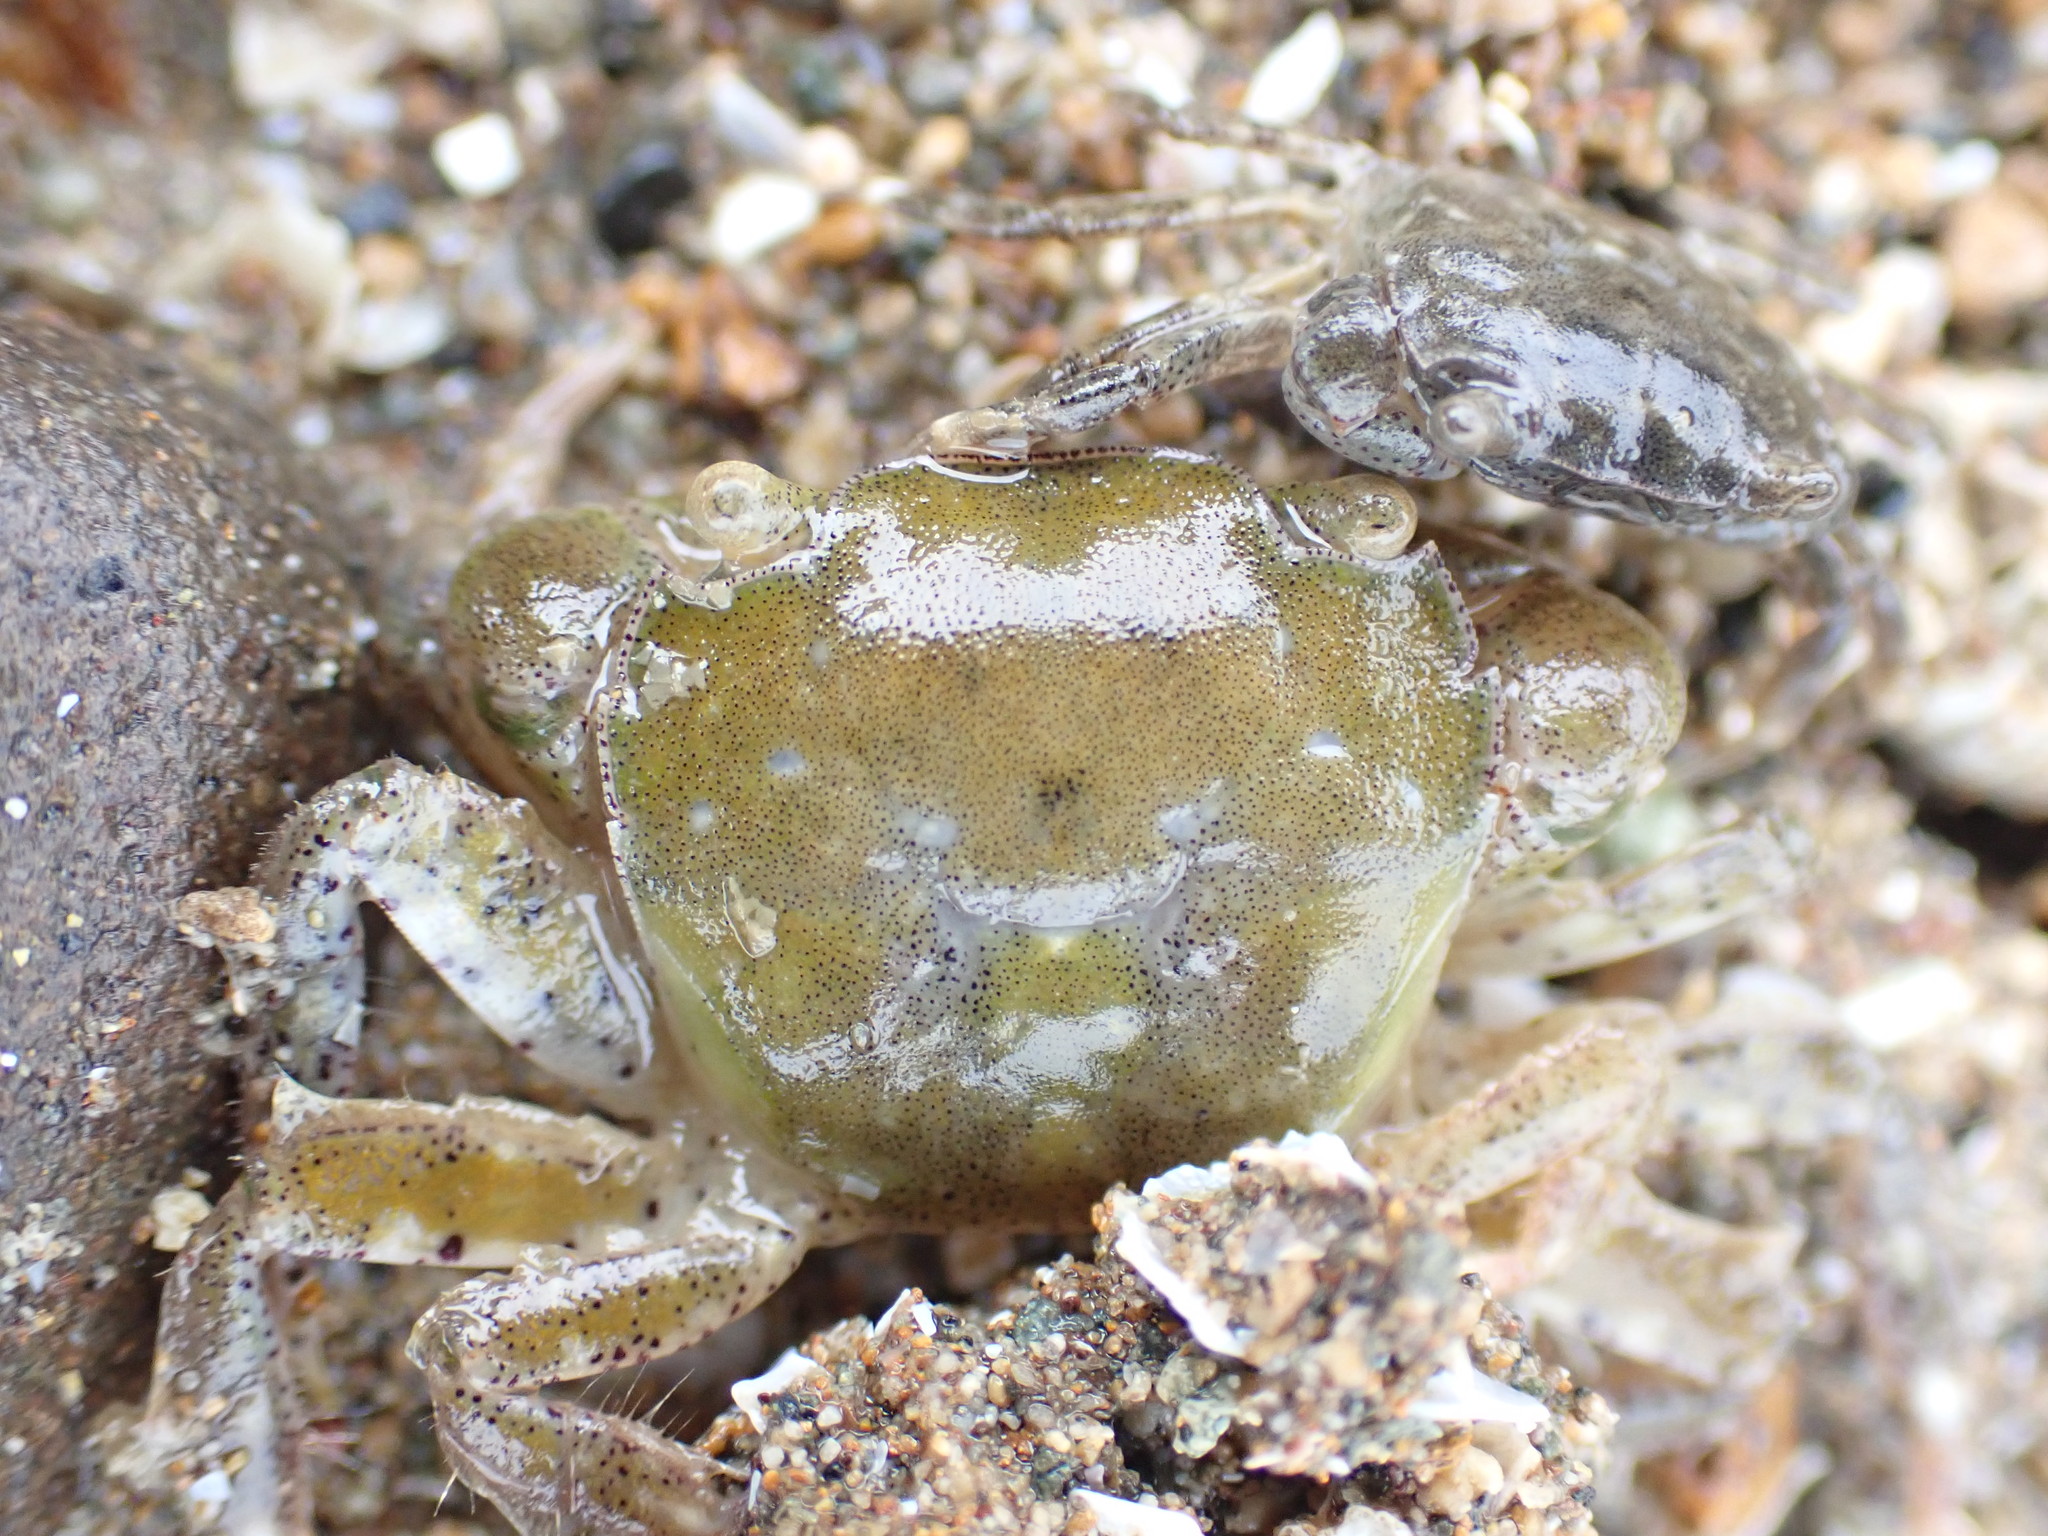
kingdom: Animalia
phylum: Arthropoda
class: Malacostraca
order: Decapoda
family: Varunidae
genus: Hemigrapsus
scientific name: Hemigrapsus crenulatus
